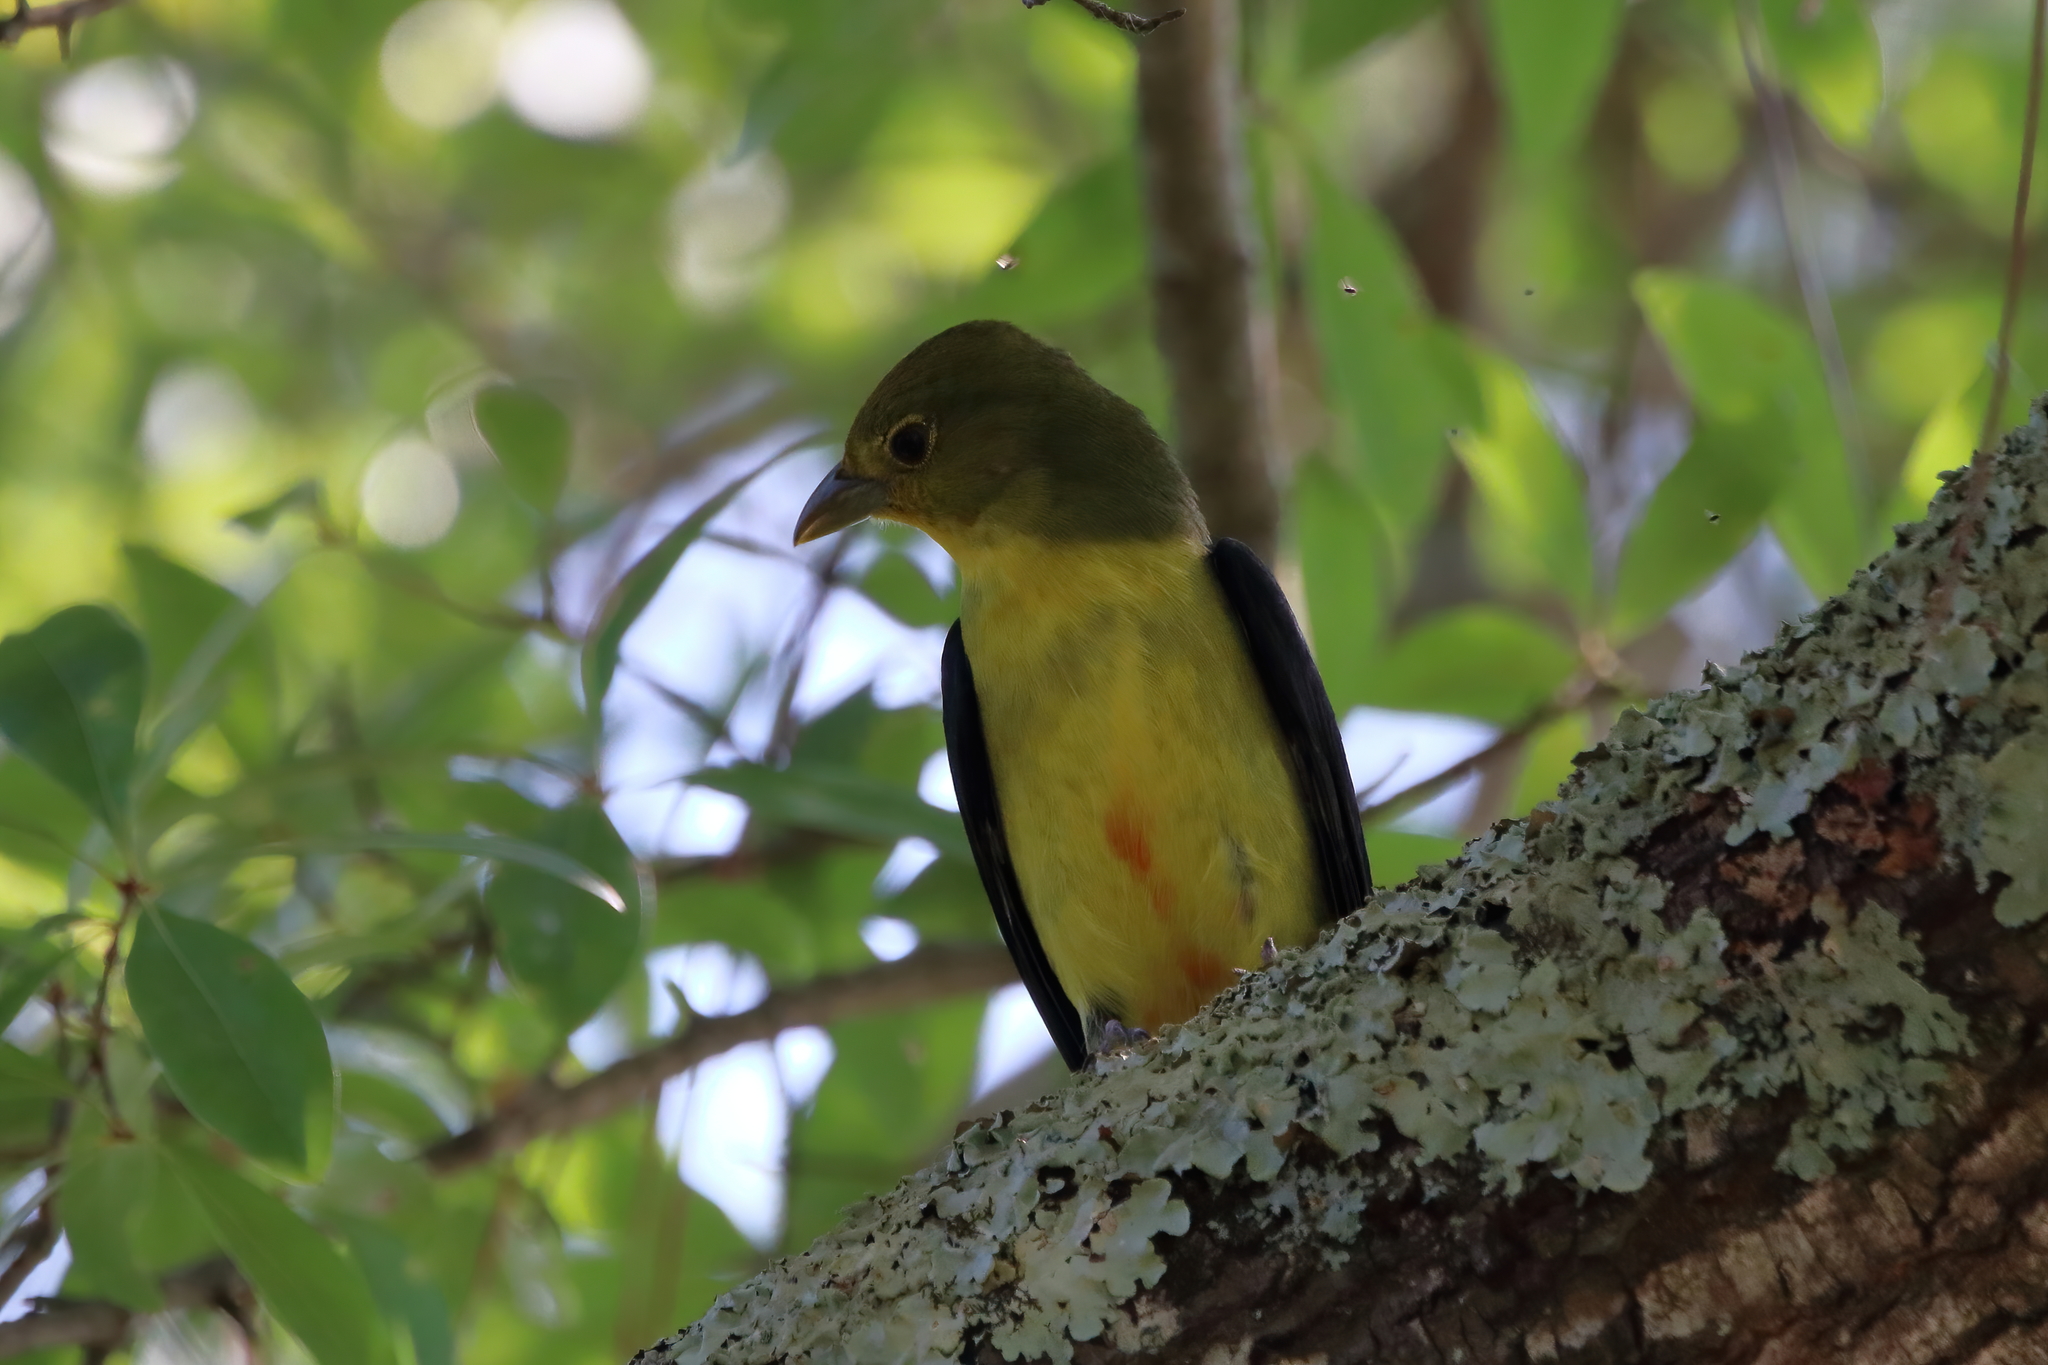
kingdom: Animalia
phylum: Chordata
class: Aves
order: Passeriformes
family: Cardinalidae
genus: Piranga
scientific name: Piranga olivacea
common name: Scarlet tanager
